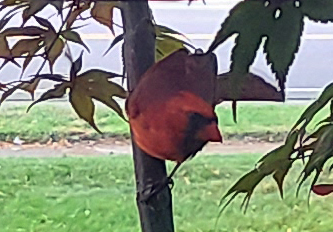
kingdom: Animalia
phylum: Chordata
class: Aves
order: Passeriformes
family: Cardinalidae
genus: Cardinalis
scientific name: Cardinalis cardinalis
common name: Northern cardinal
